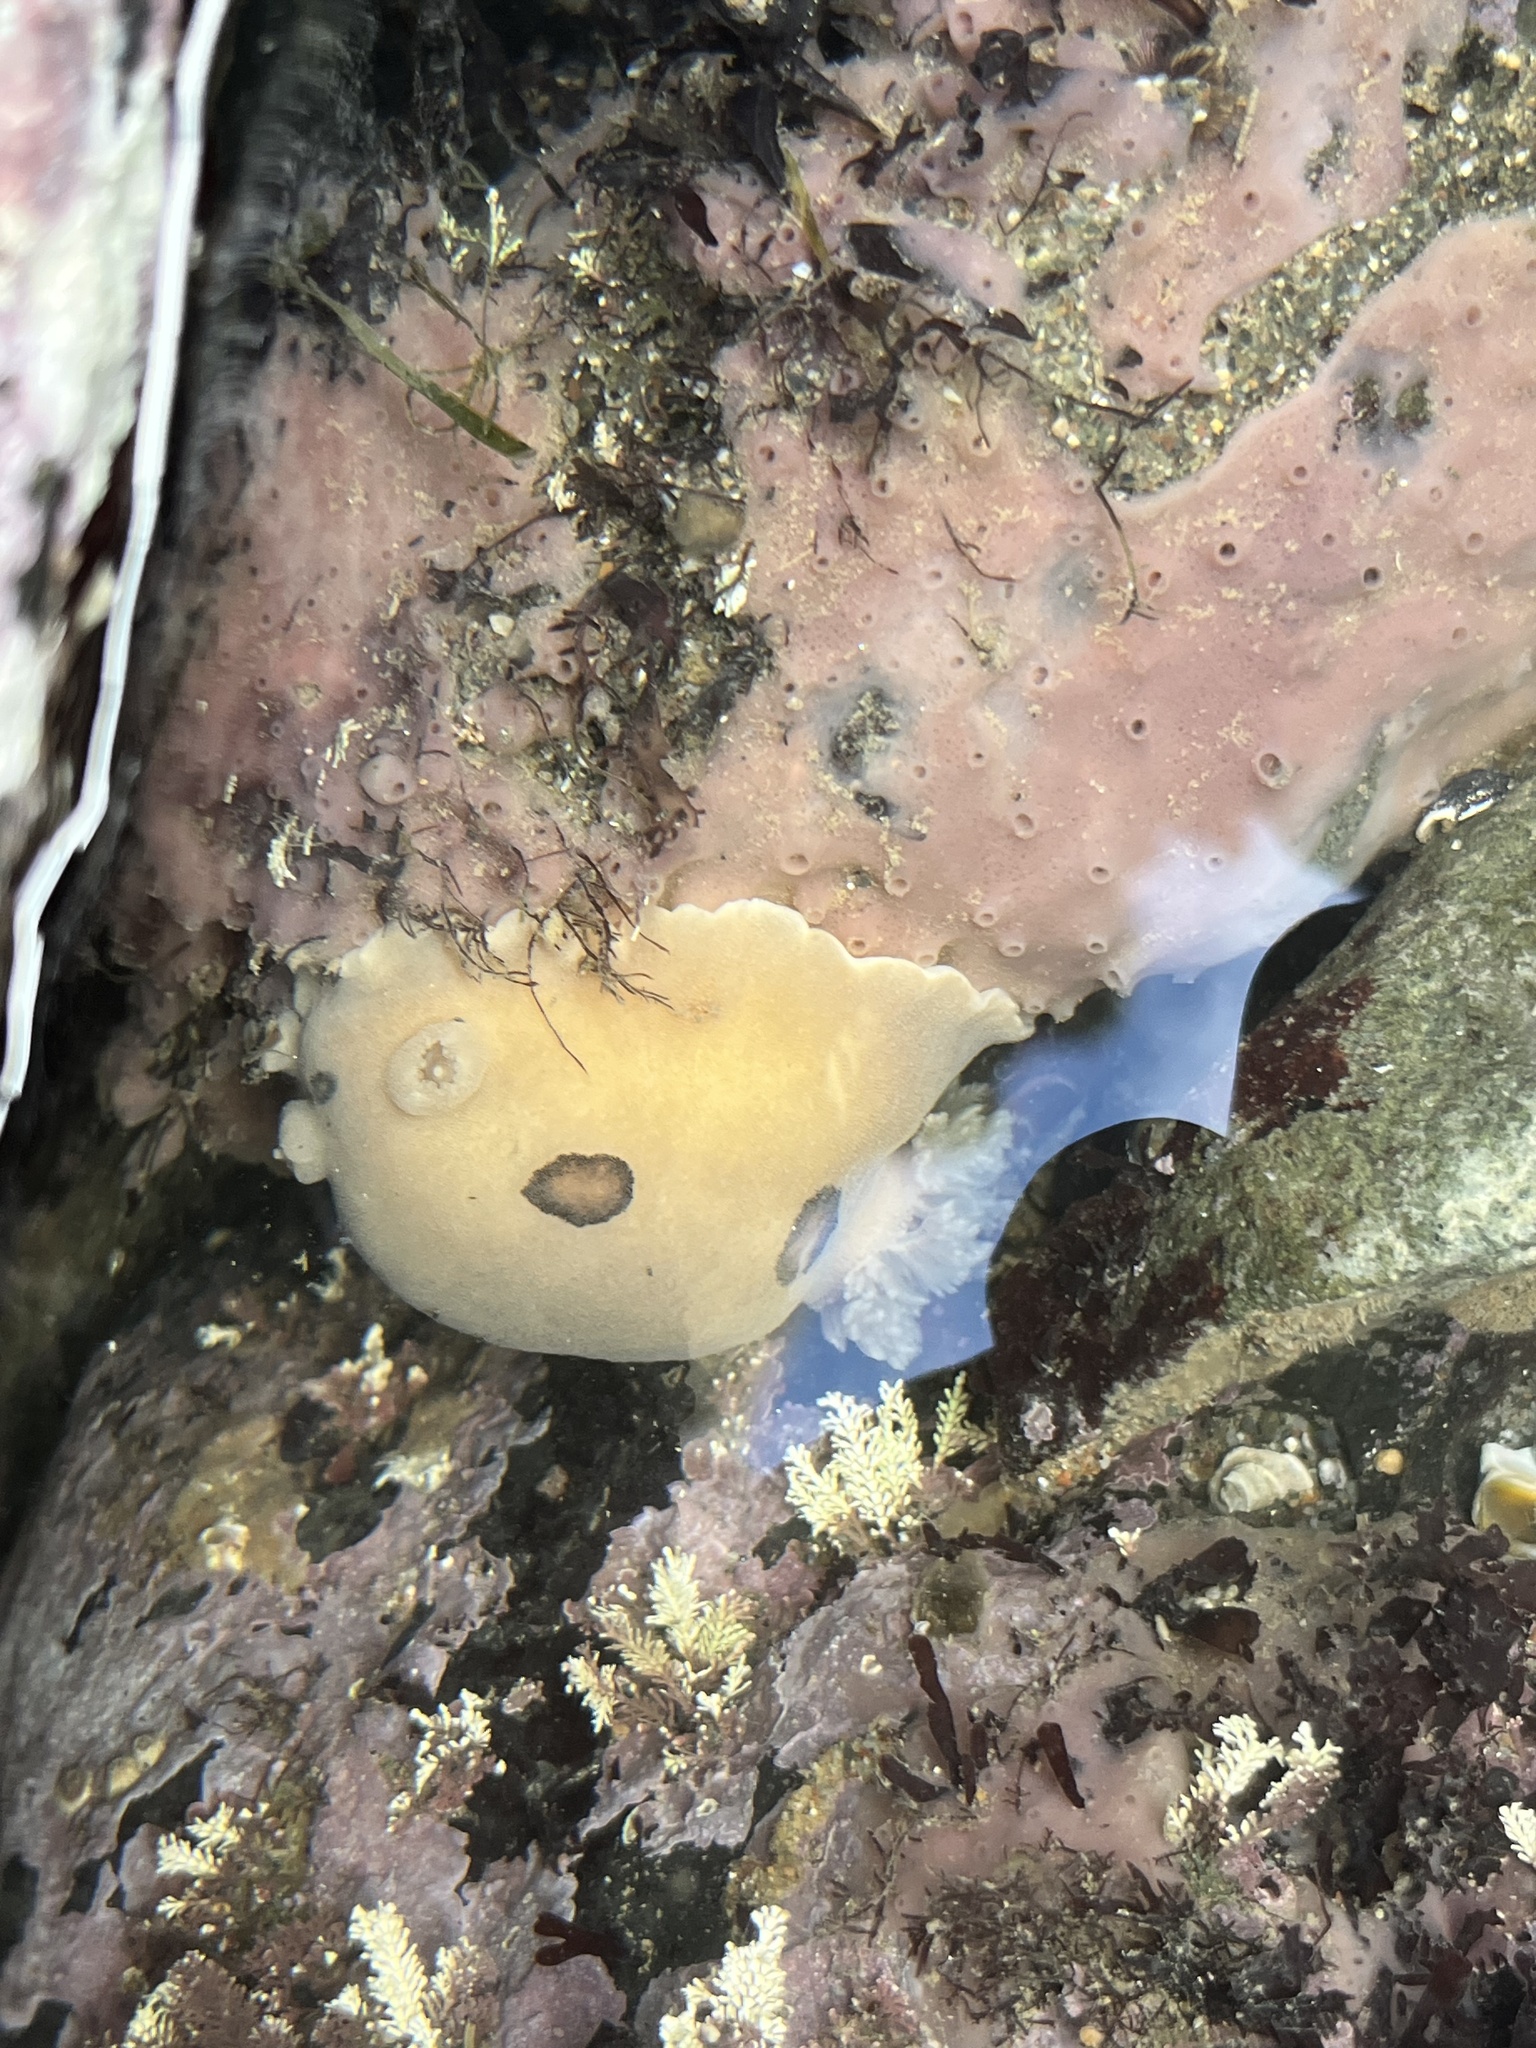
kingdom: Animalia
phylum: Mollusca
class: Gastropoda
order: Nudibranchia
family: Discodorididae
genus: Diaulula
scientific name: Diaulula sandiegensis
